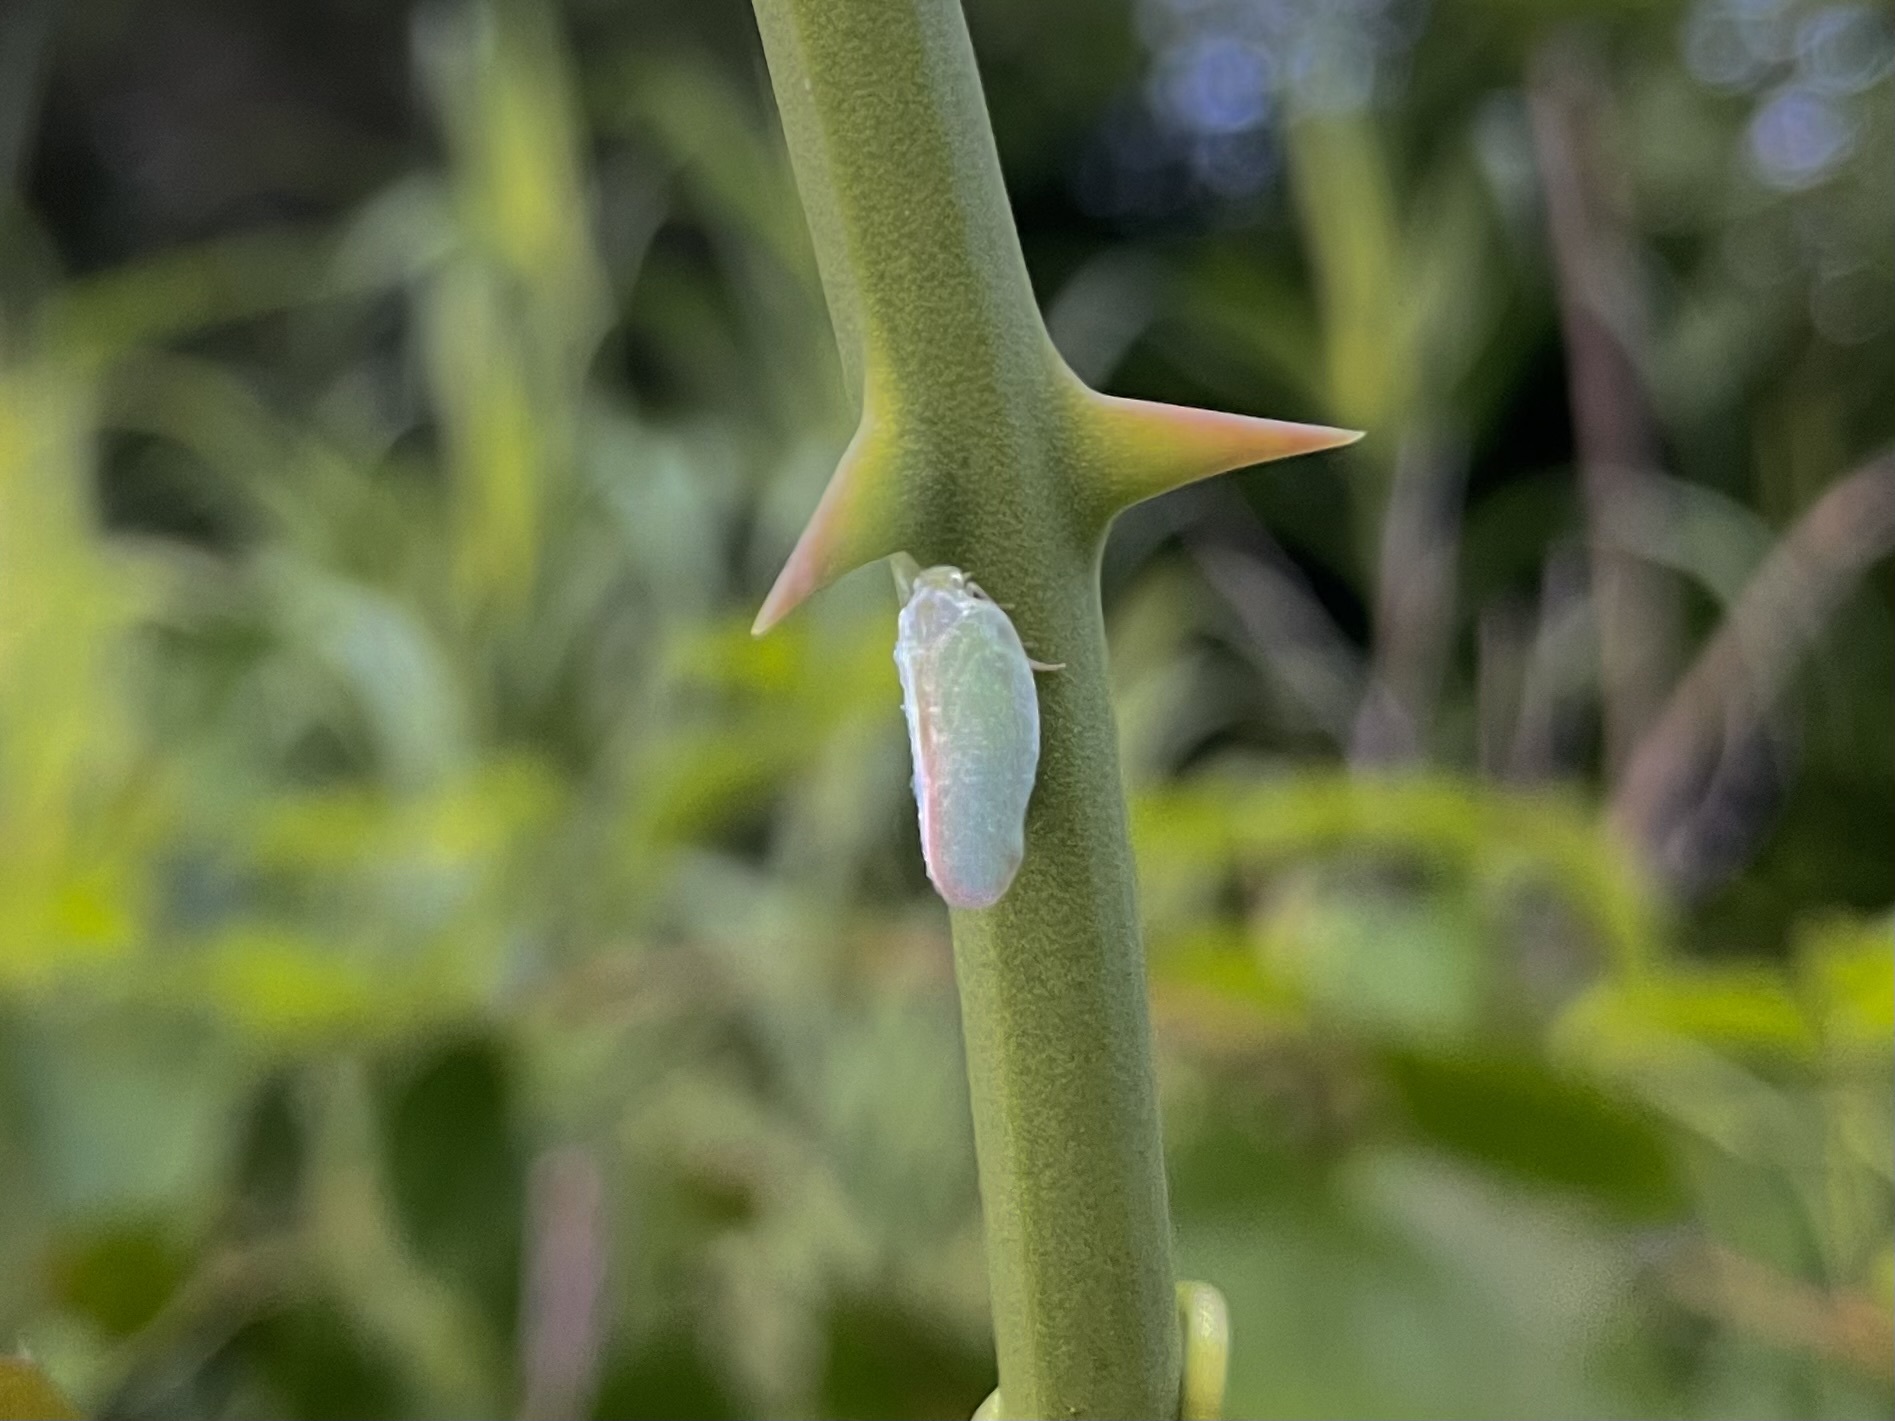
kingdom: Animalia
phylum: Arthropoda
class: Insecta
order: Hemiptera
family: Flatidae
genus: Ormenoides
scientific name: Ormenoides venusta
